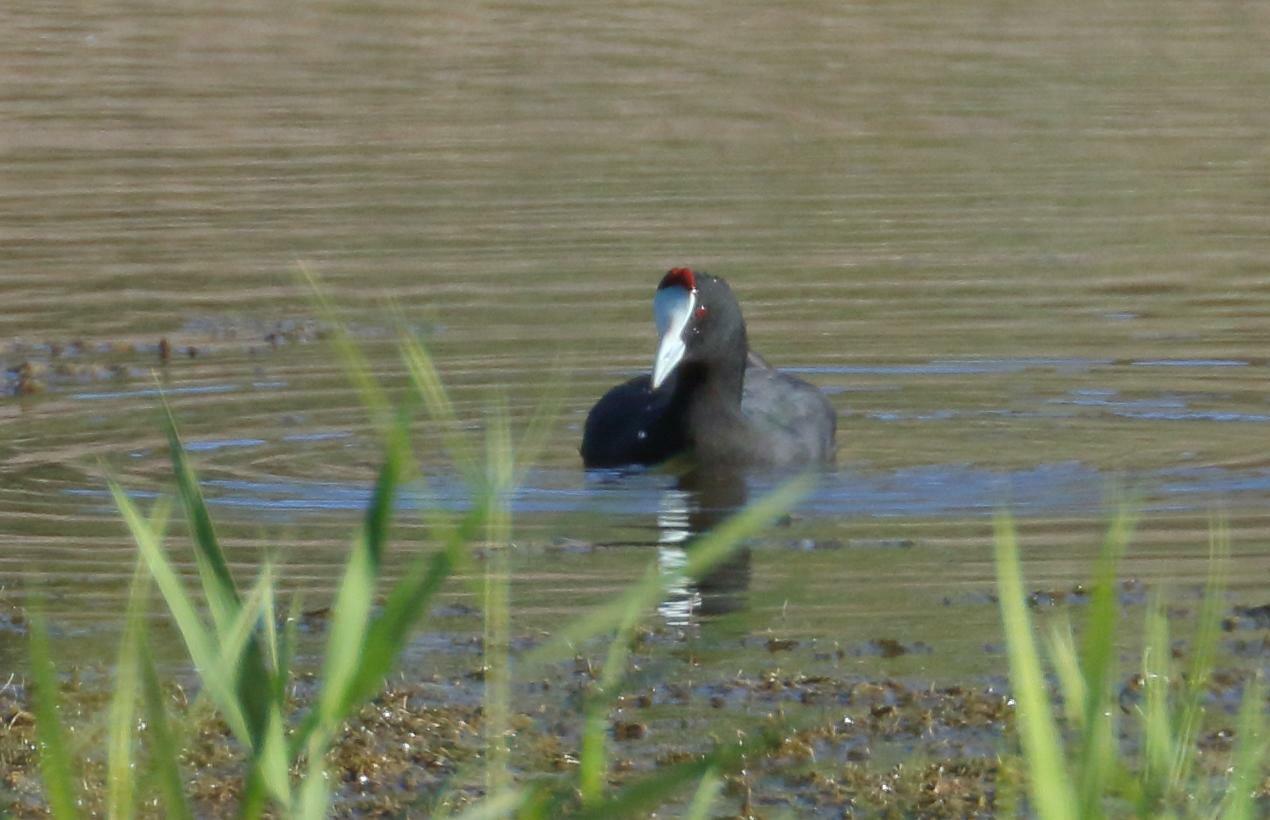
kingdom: Animalia
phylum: Chordata
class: Aves
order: Gruiformes
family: Rallidae
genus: Fulica
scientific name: Fulica cristata
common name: Red-knobbed coot
